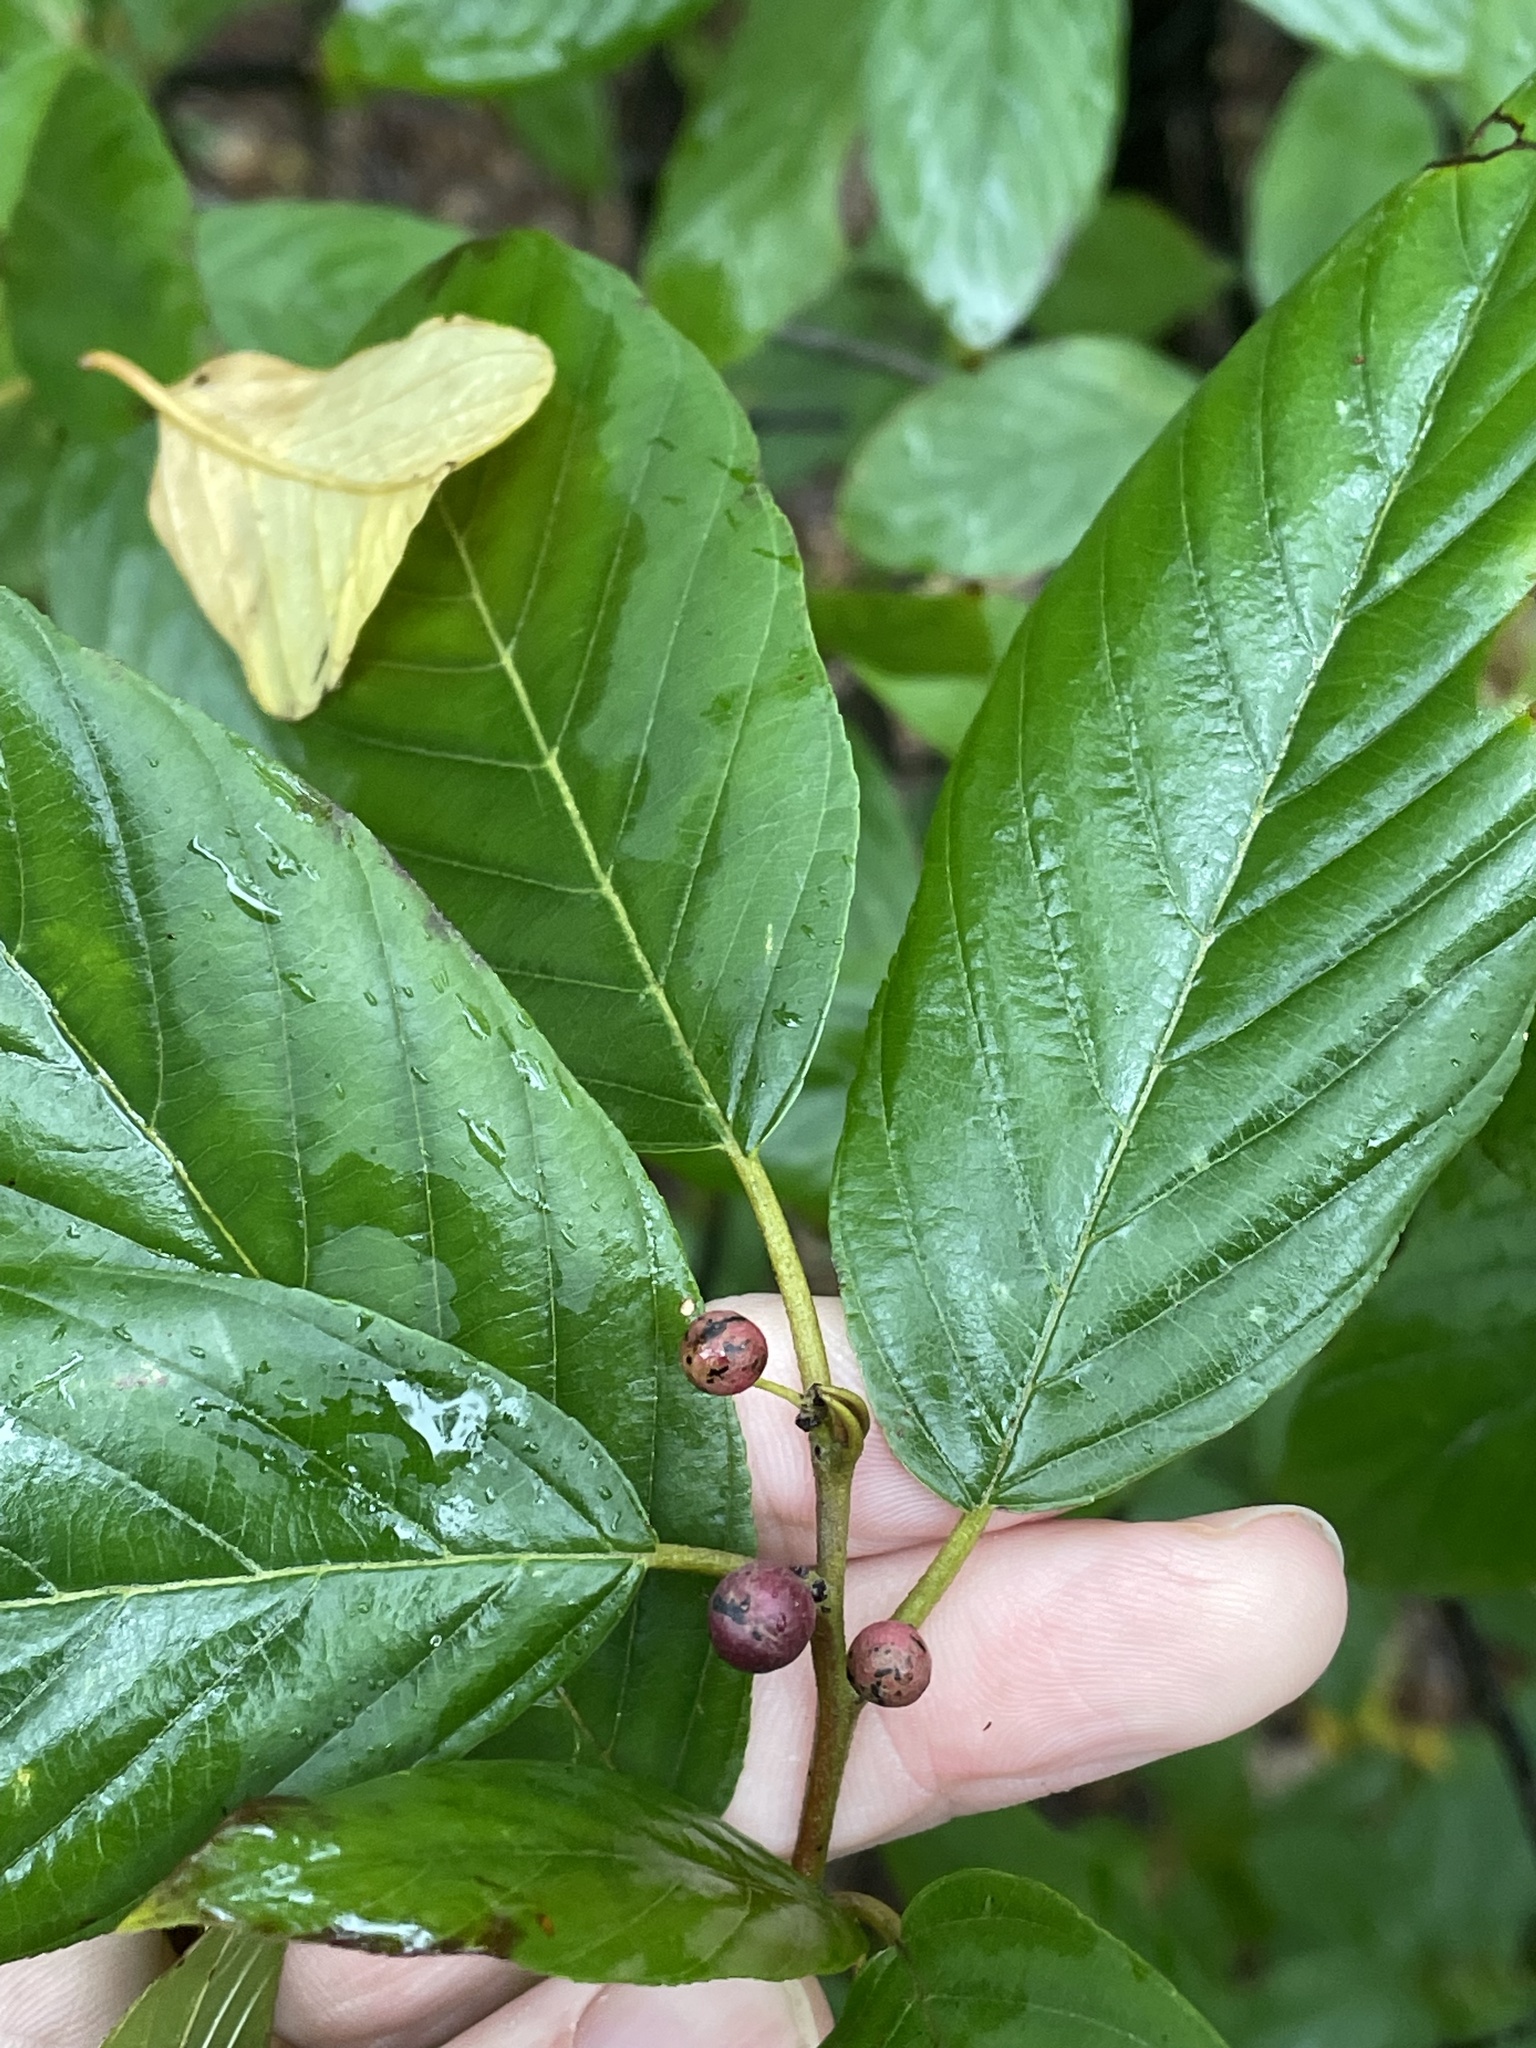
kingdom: Plantae
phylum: Tracheophyta
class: Magnoliopsida
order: Rosales
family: Rhamnaceae
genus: Frangula
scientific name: Frangula caroliniana
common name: Carolina buckthorn
